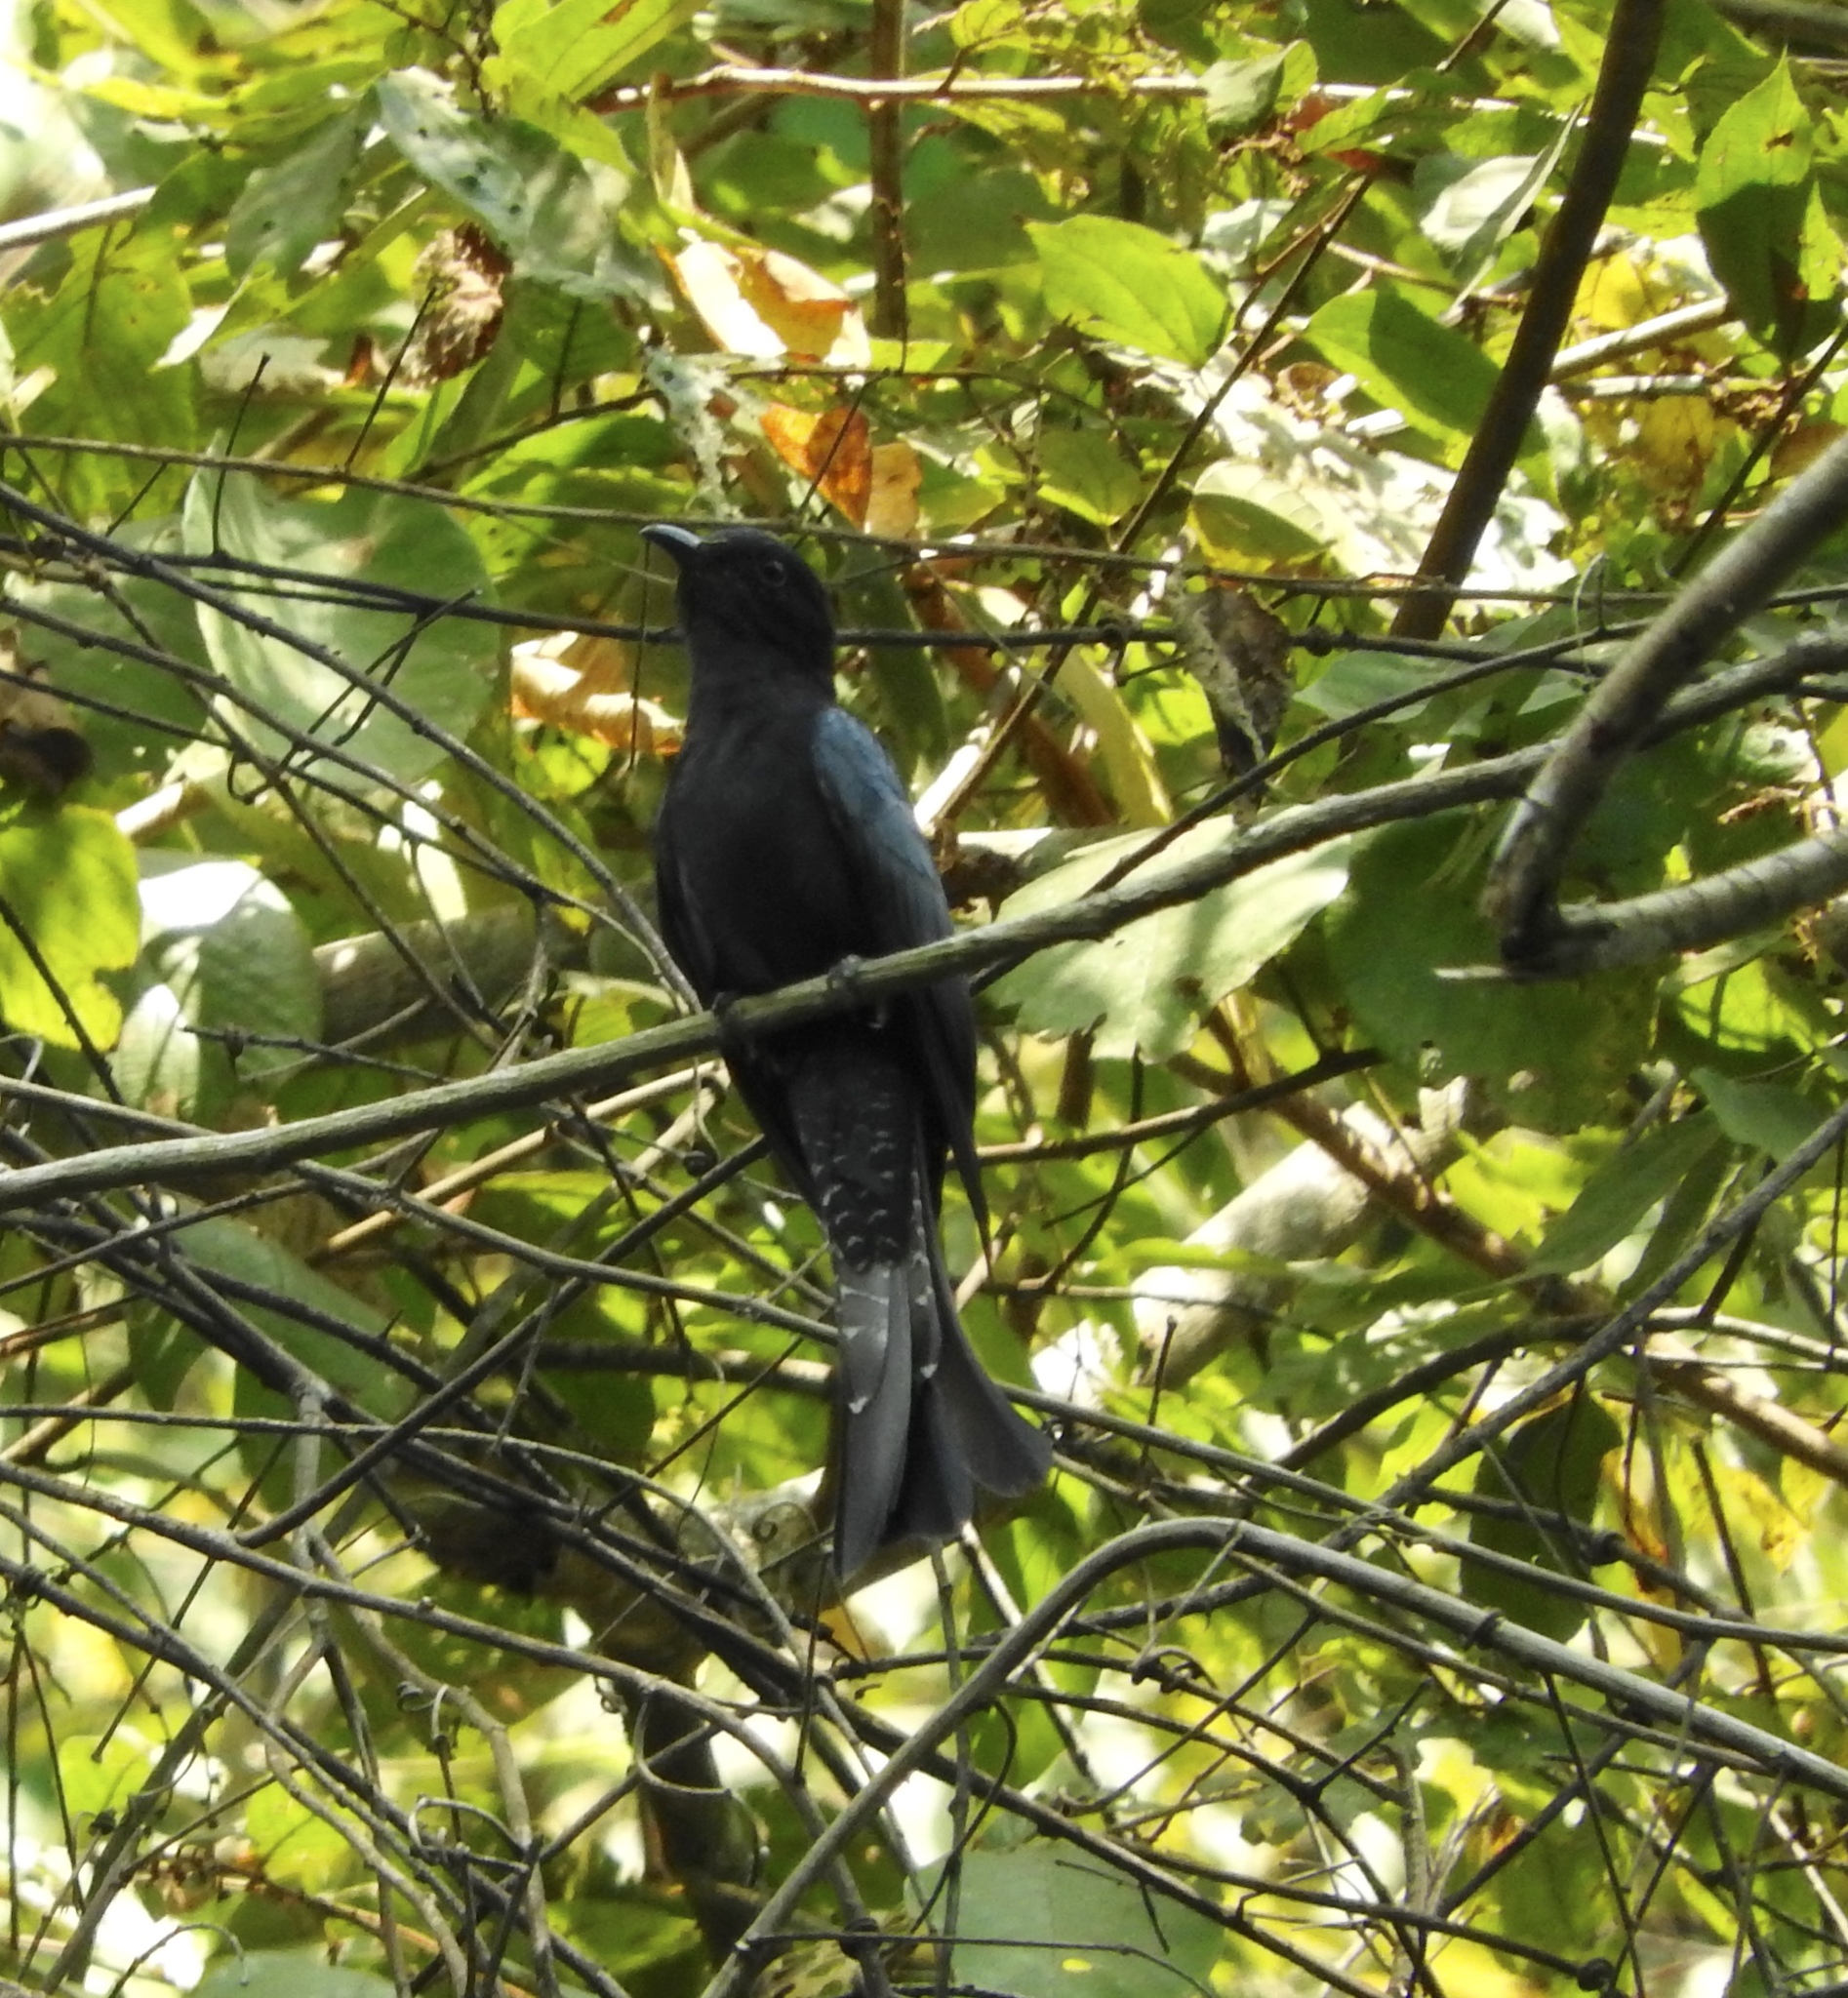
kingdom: Animalia
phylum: Chordata
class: Aves
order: Cuculiformes
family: Cuculidae
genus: Surniculus
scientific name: Surniculus lugubris
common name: Square-tailed drongo-cuckoo
